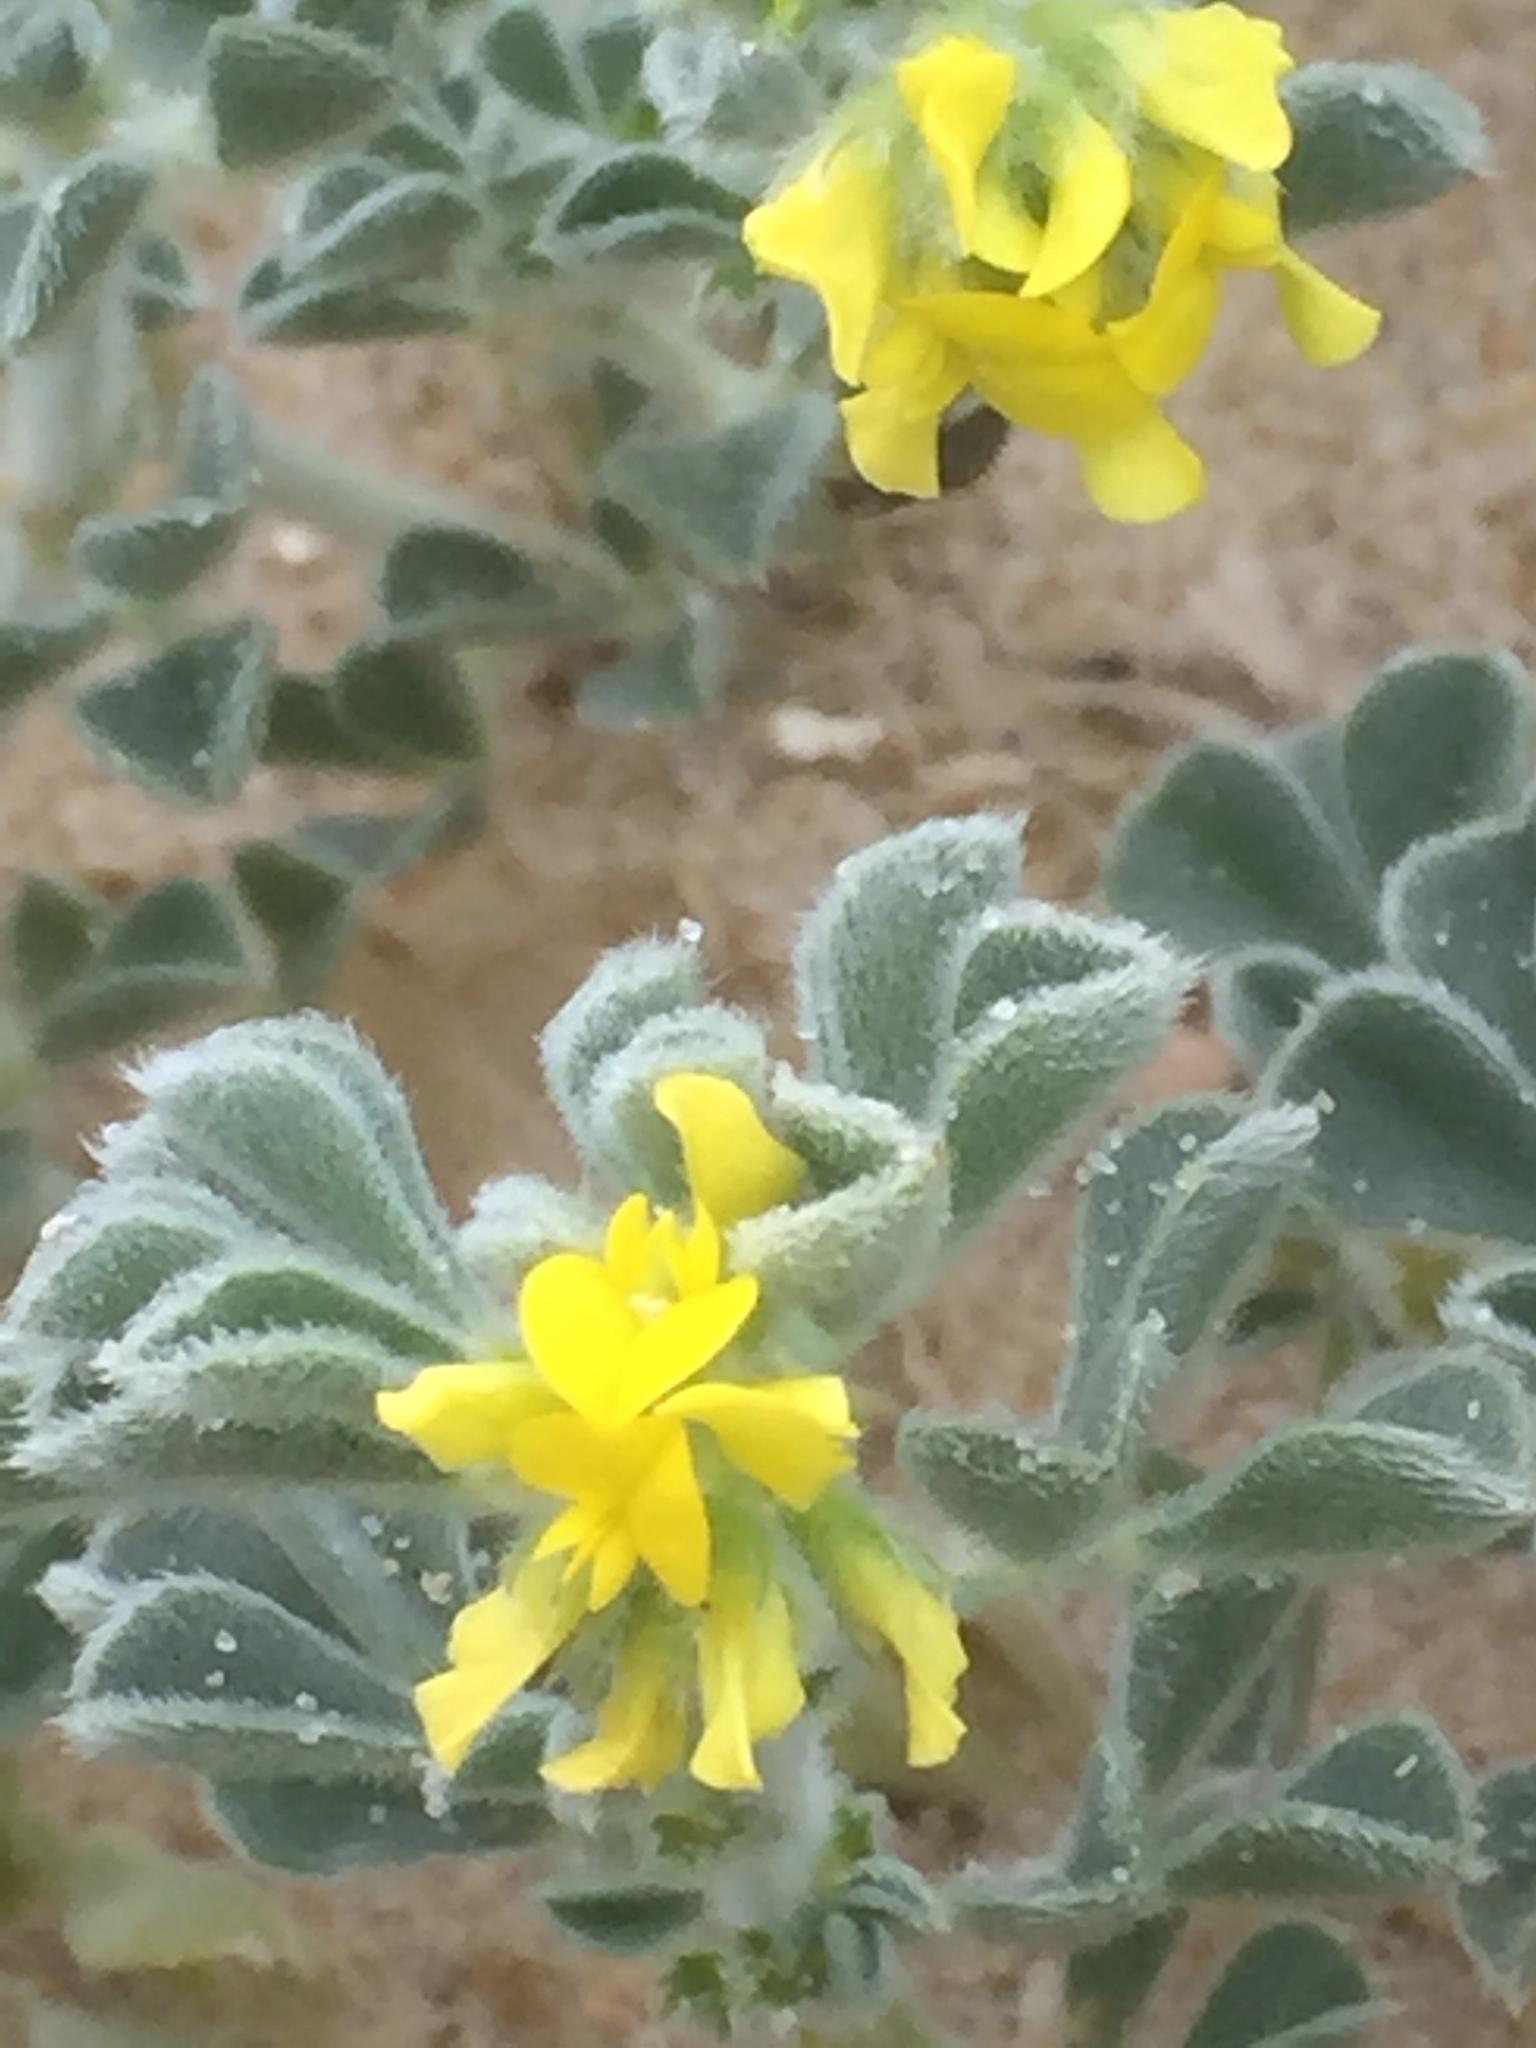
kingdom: Plantae
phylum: Tracheophyta
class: Magnoliopsida
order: Fabales
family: Fabaceae
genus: Medicago
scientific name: Medicago marina
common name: Sea medick
